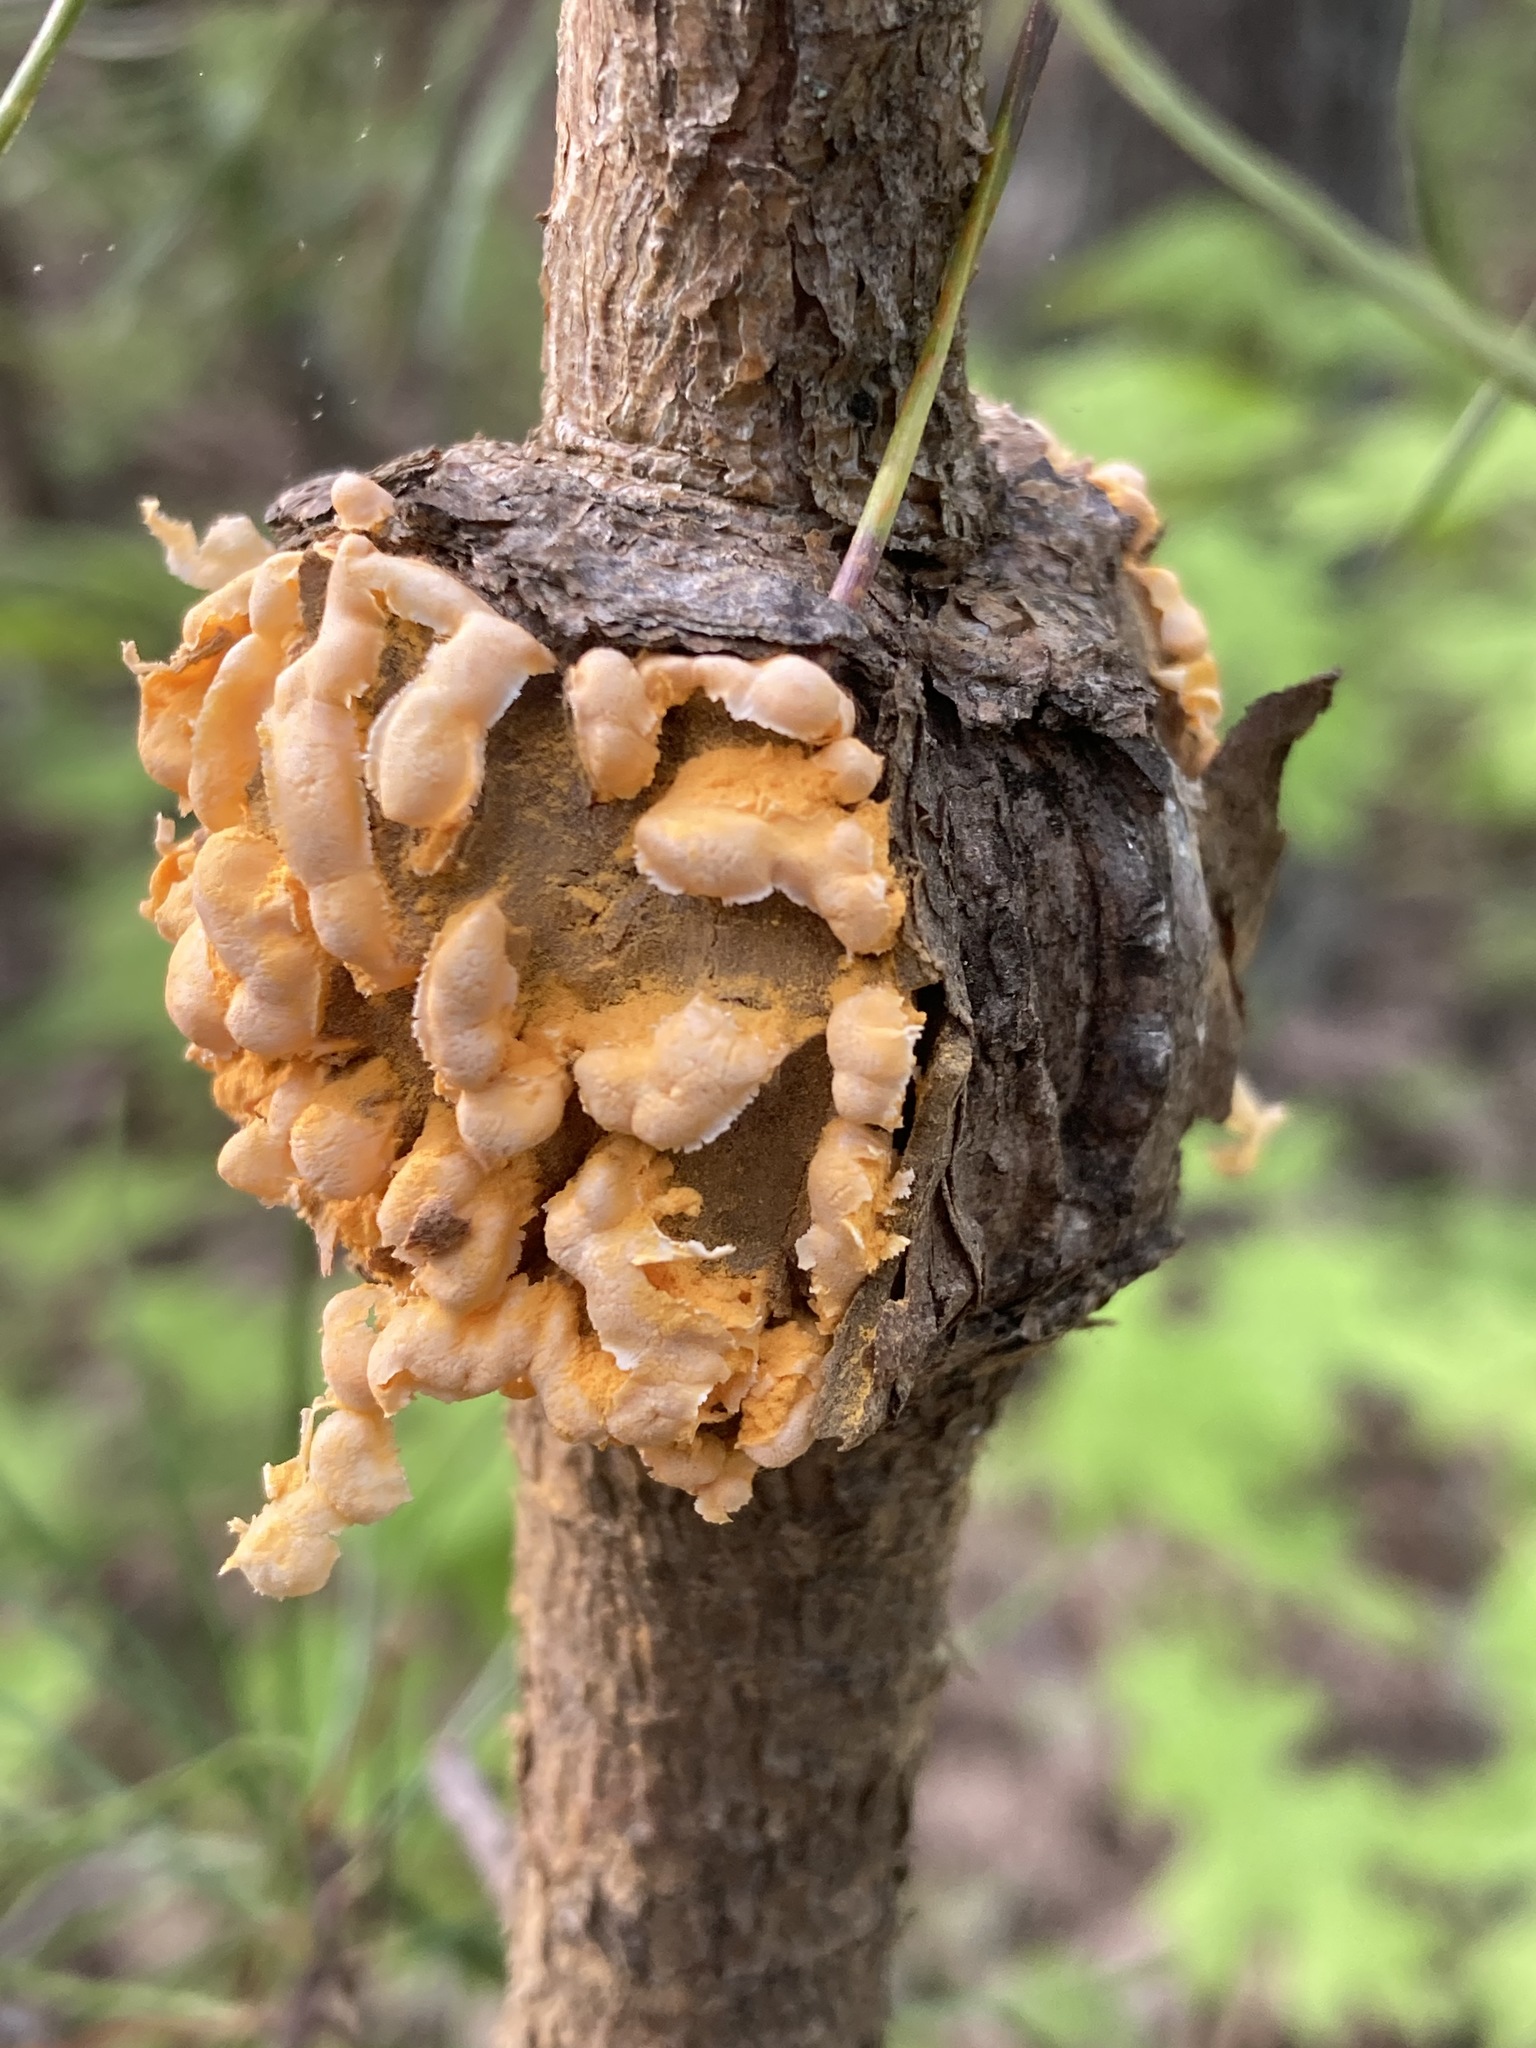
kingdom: Fungi
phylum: Basidiomycota
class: Pucciniomycetes
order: Pucciniales
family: Cronartiaceae
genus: Cronartium
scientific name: Cronartium quercuum
